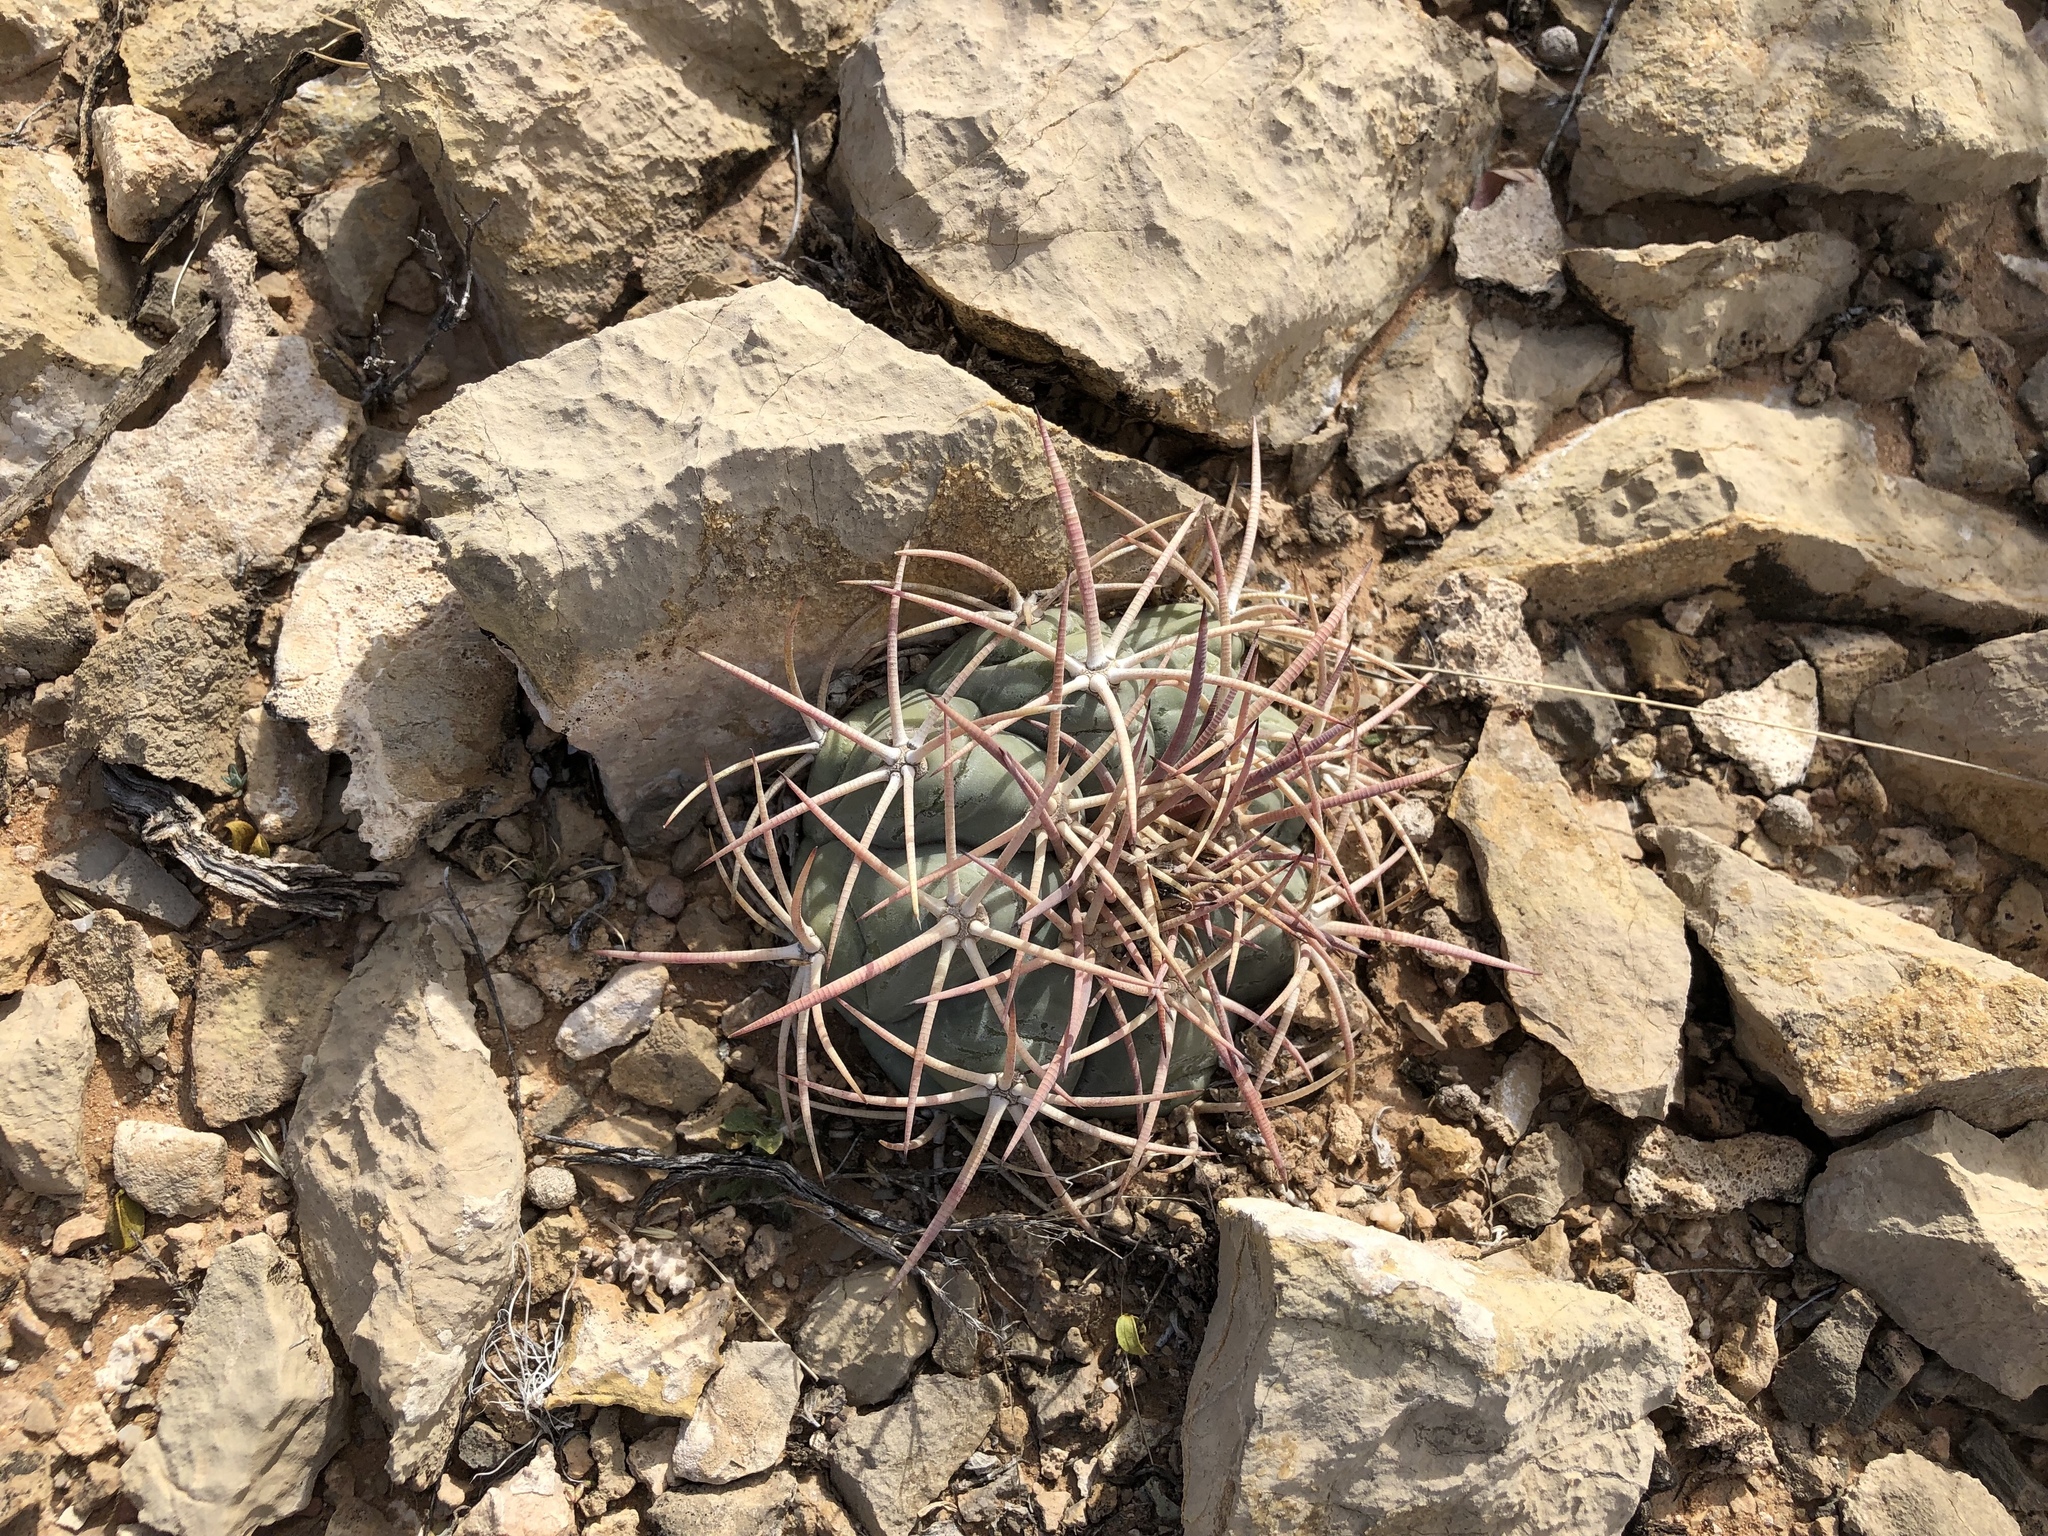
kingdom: Plantae
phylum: Tracheophyta
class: Magnoliopsida
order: Caryophyllales
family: Cactaceae
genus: Echinocactus
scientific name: Echinocactus horizonthalonius
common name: Devilshead
